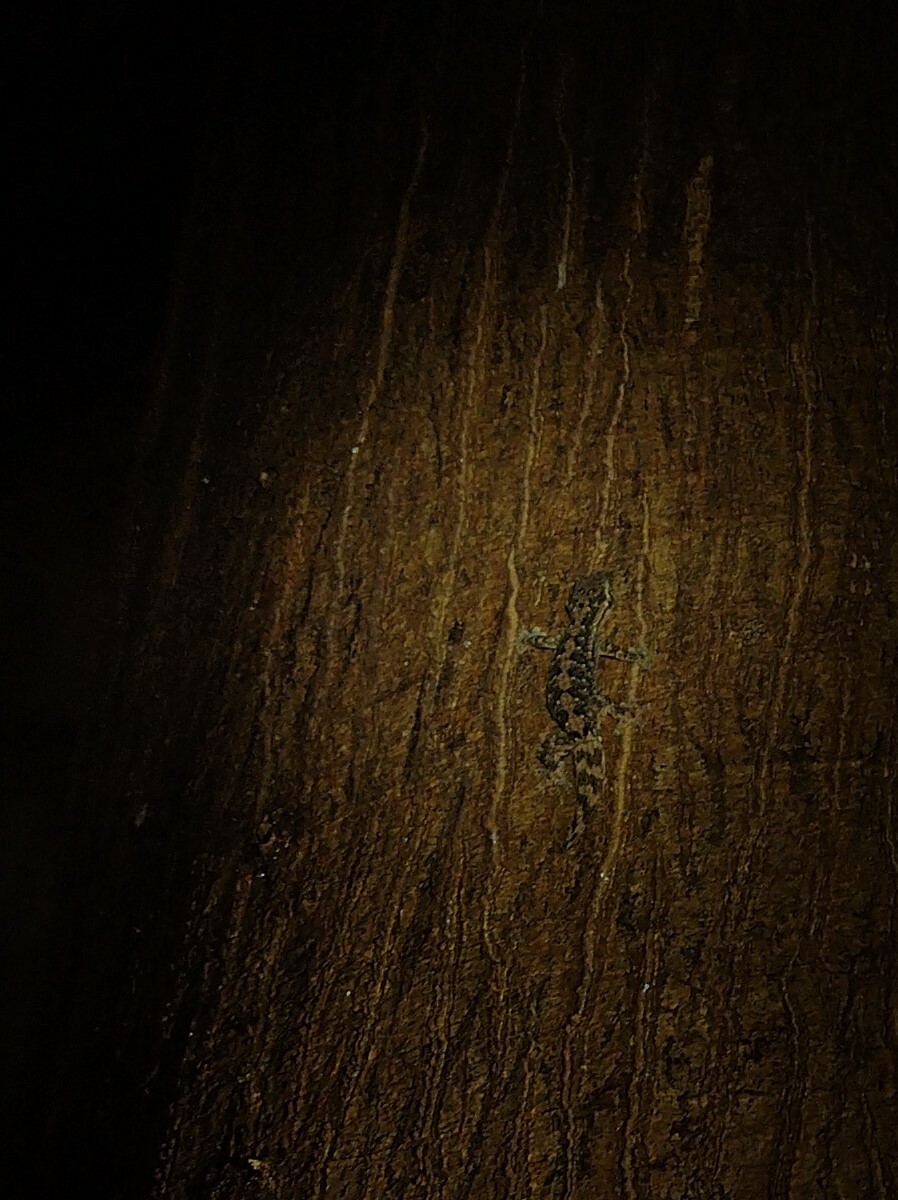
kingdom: Animalia
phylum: Chordata
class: Squamata
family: Phyllodactylidae
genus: Thecadactylus
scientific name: Thecadactylus rapicauda
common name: Turnip-tailed gecko
